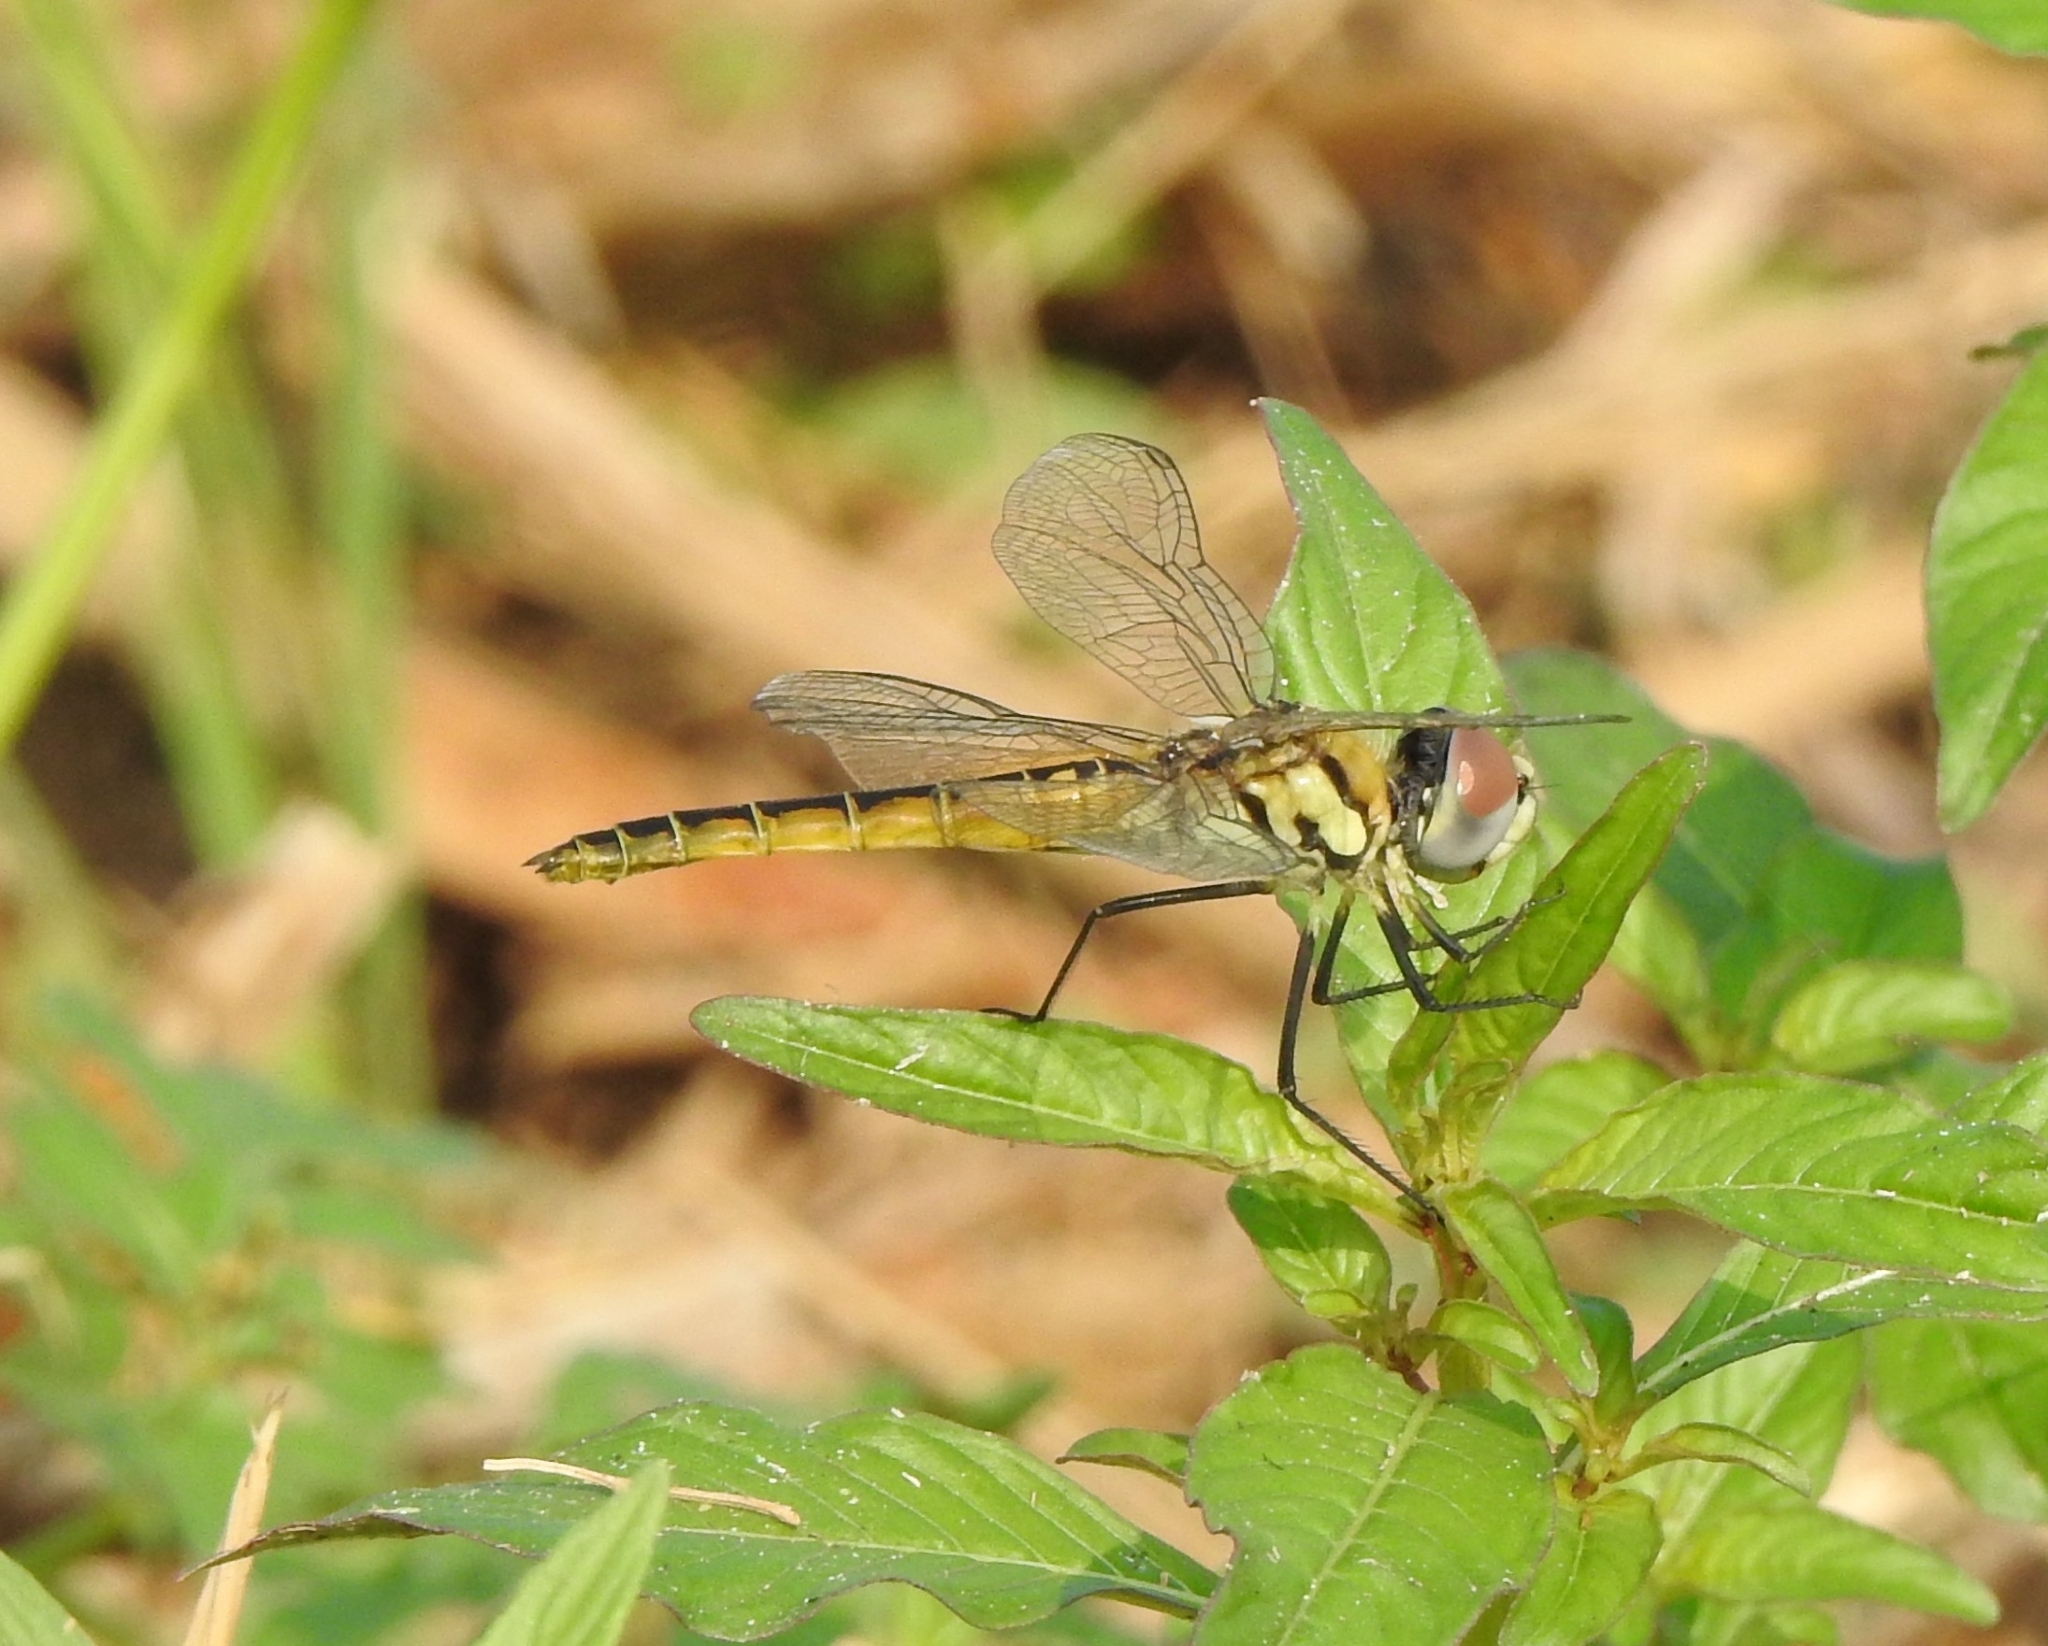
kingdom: Animalia
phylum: Arthropoda
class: Insecta
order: Odonata
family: Libellulidae
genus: Macrodiplax
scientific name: Macrodiplax cora
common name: Coastal glider
